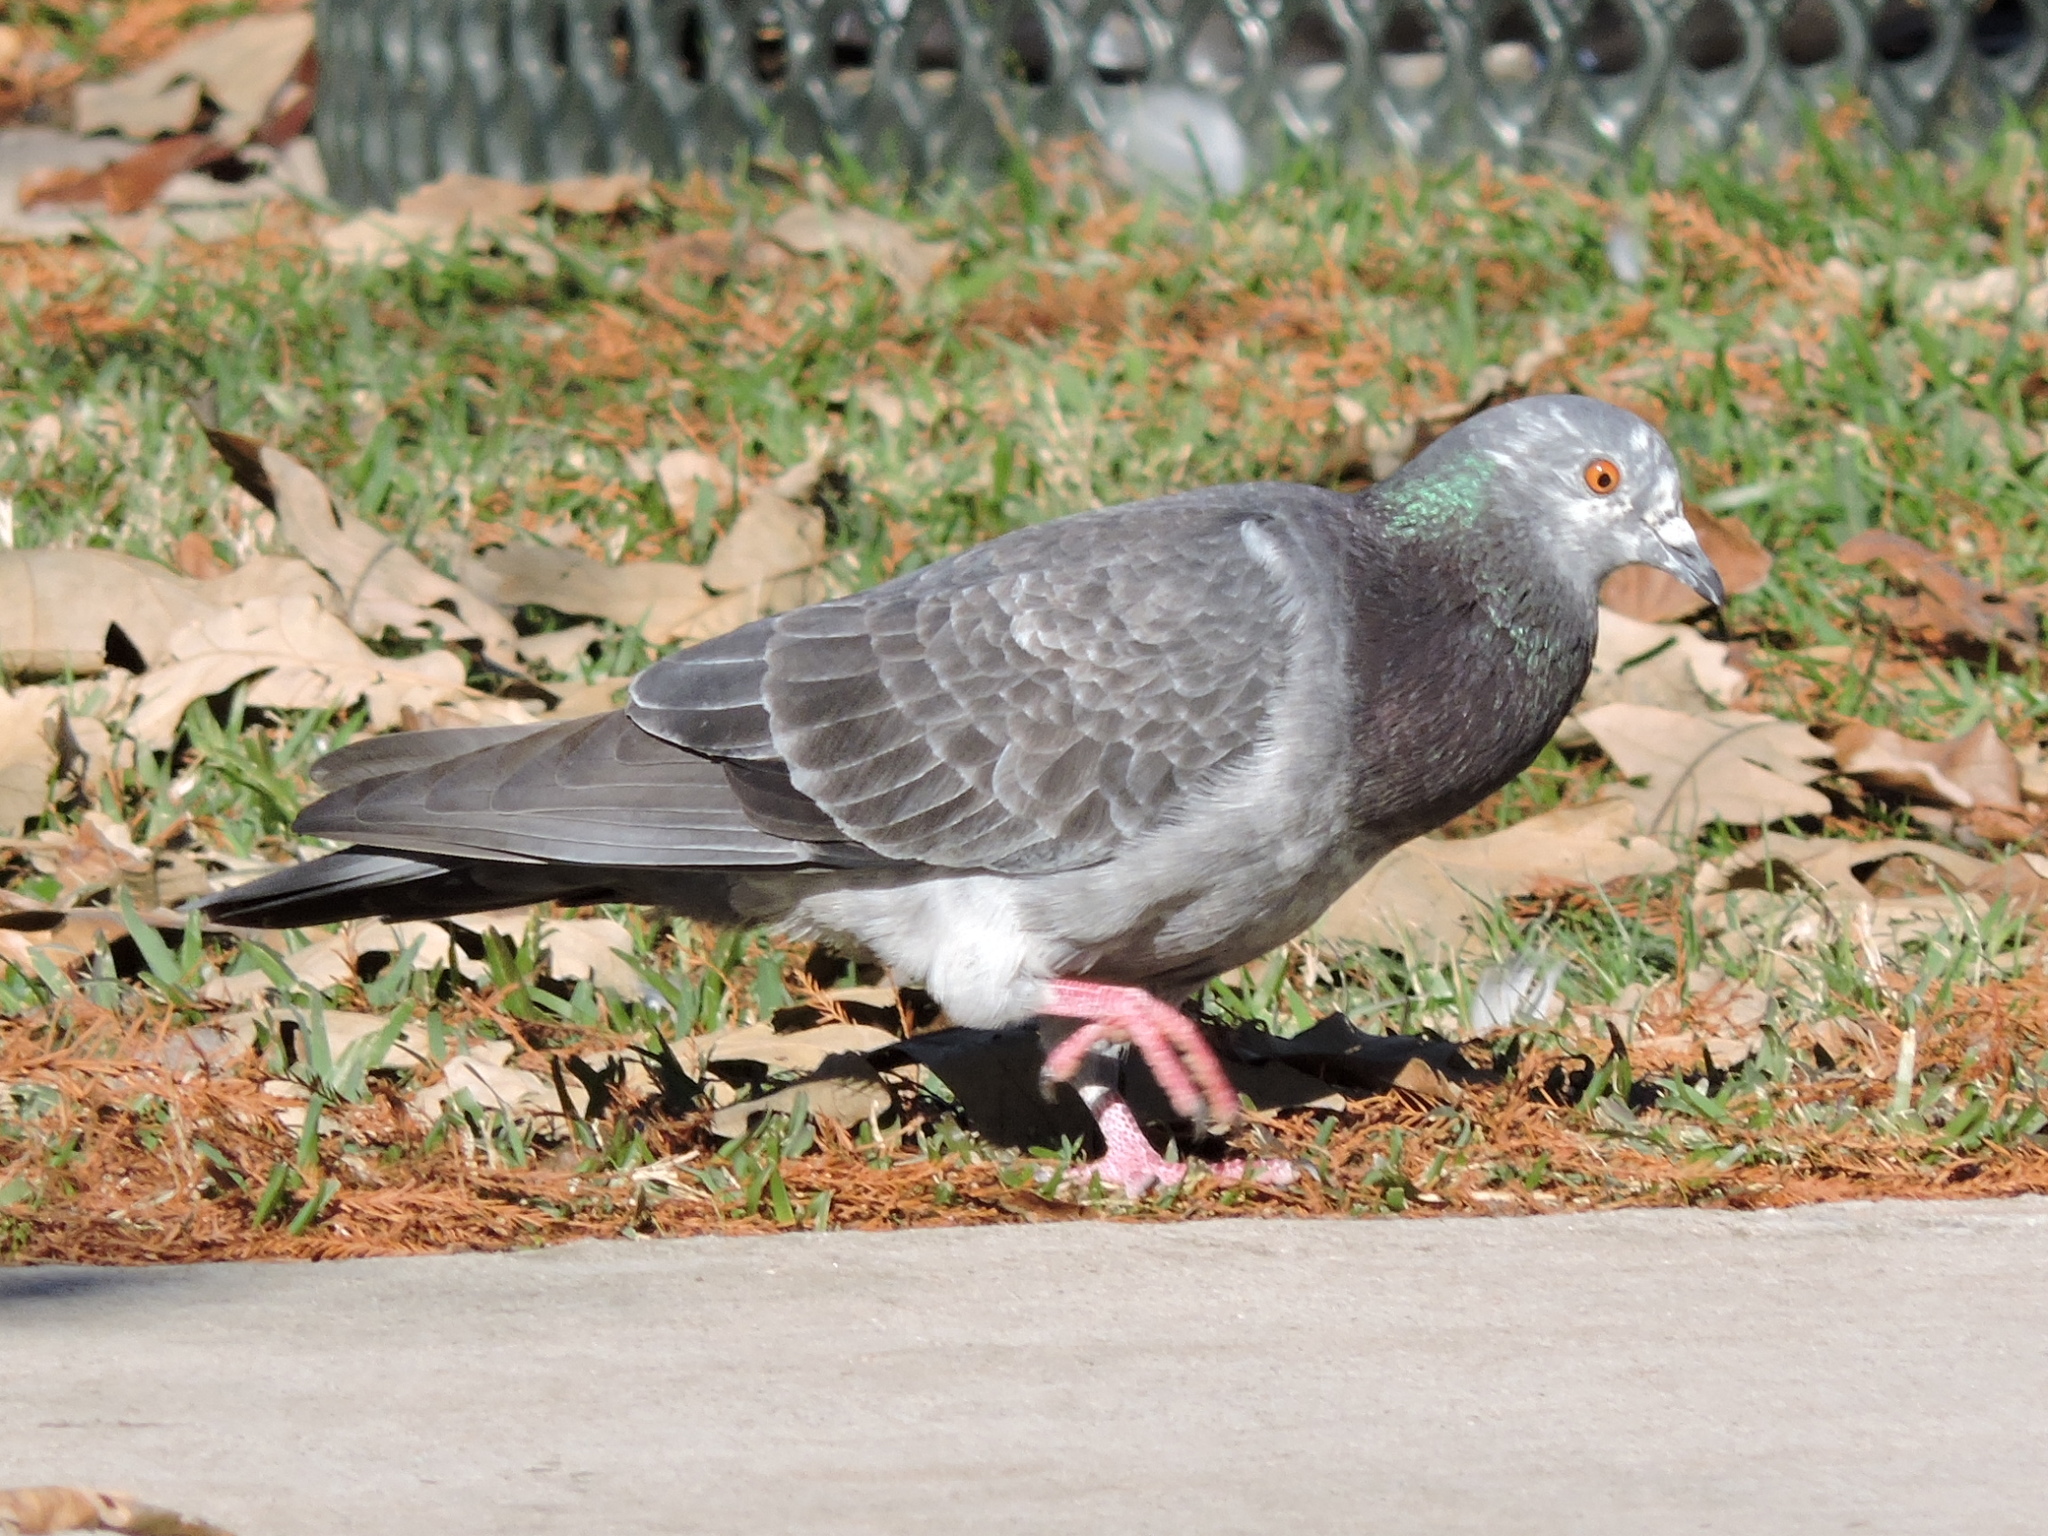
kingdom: Animalia
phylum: Chordata
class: Aves
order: Columbiformes
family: Columbidae
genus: Columba
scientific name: Columba livia
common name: Rock pigeon
